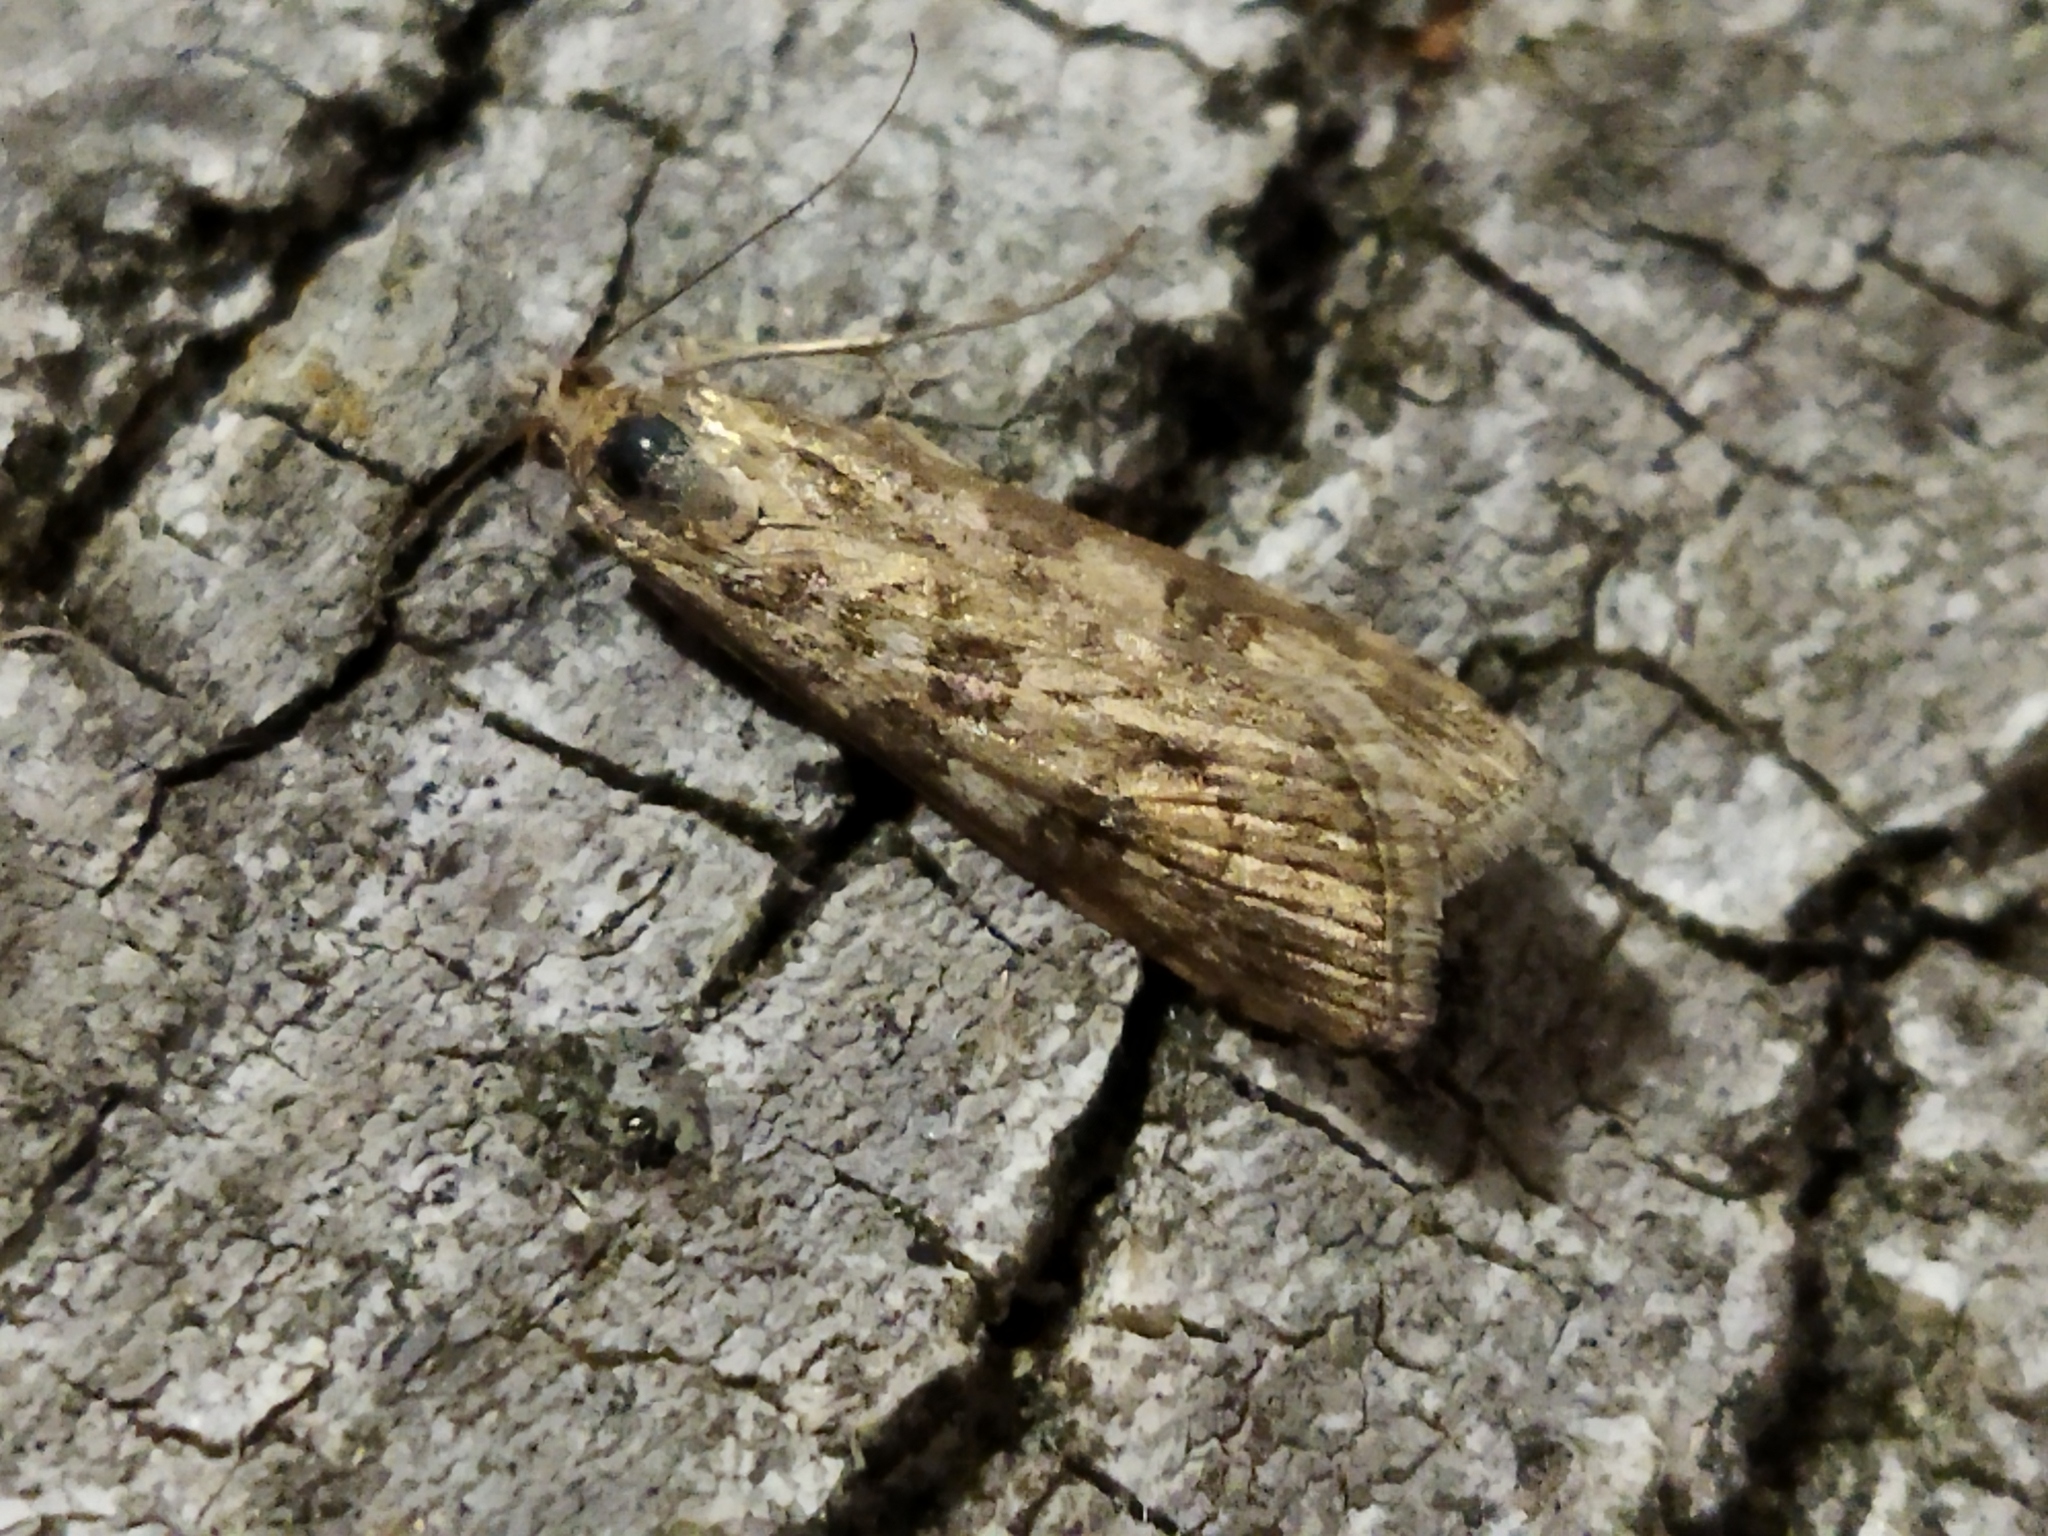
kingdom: Animalia
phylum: Arthropoda
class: Insecta
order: Lepidoptera
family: Crambidae
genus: Nomophila
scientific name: Nomophila noctuella
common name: Rush veneer
